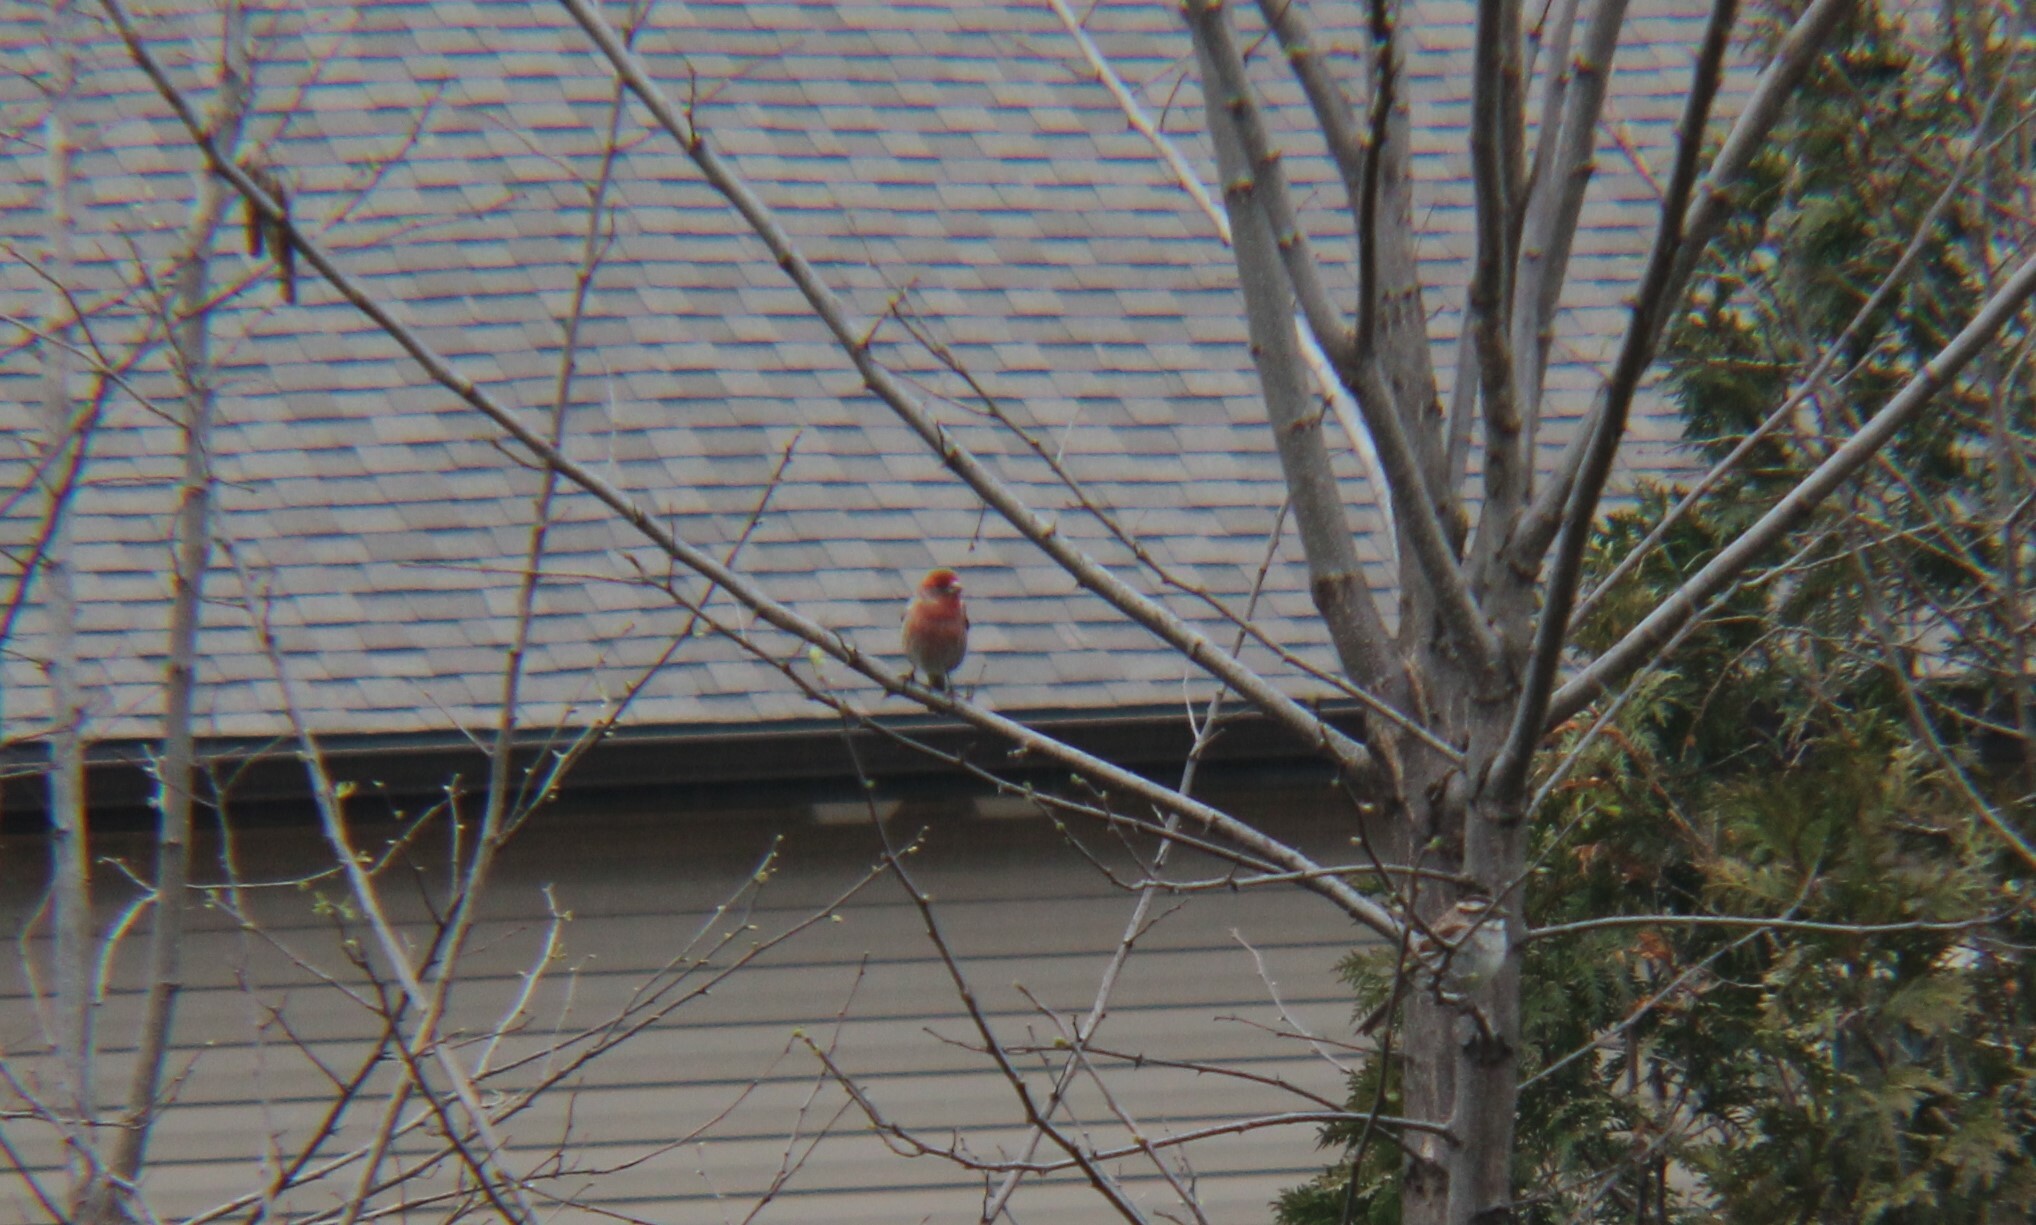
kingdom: Animalia
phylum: Chordata
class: Aves
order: Passeriformes
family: Fringillidae
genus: Haemorhous
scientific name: Haemorhous mexicanus
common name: House finch
